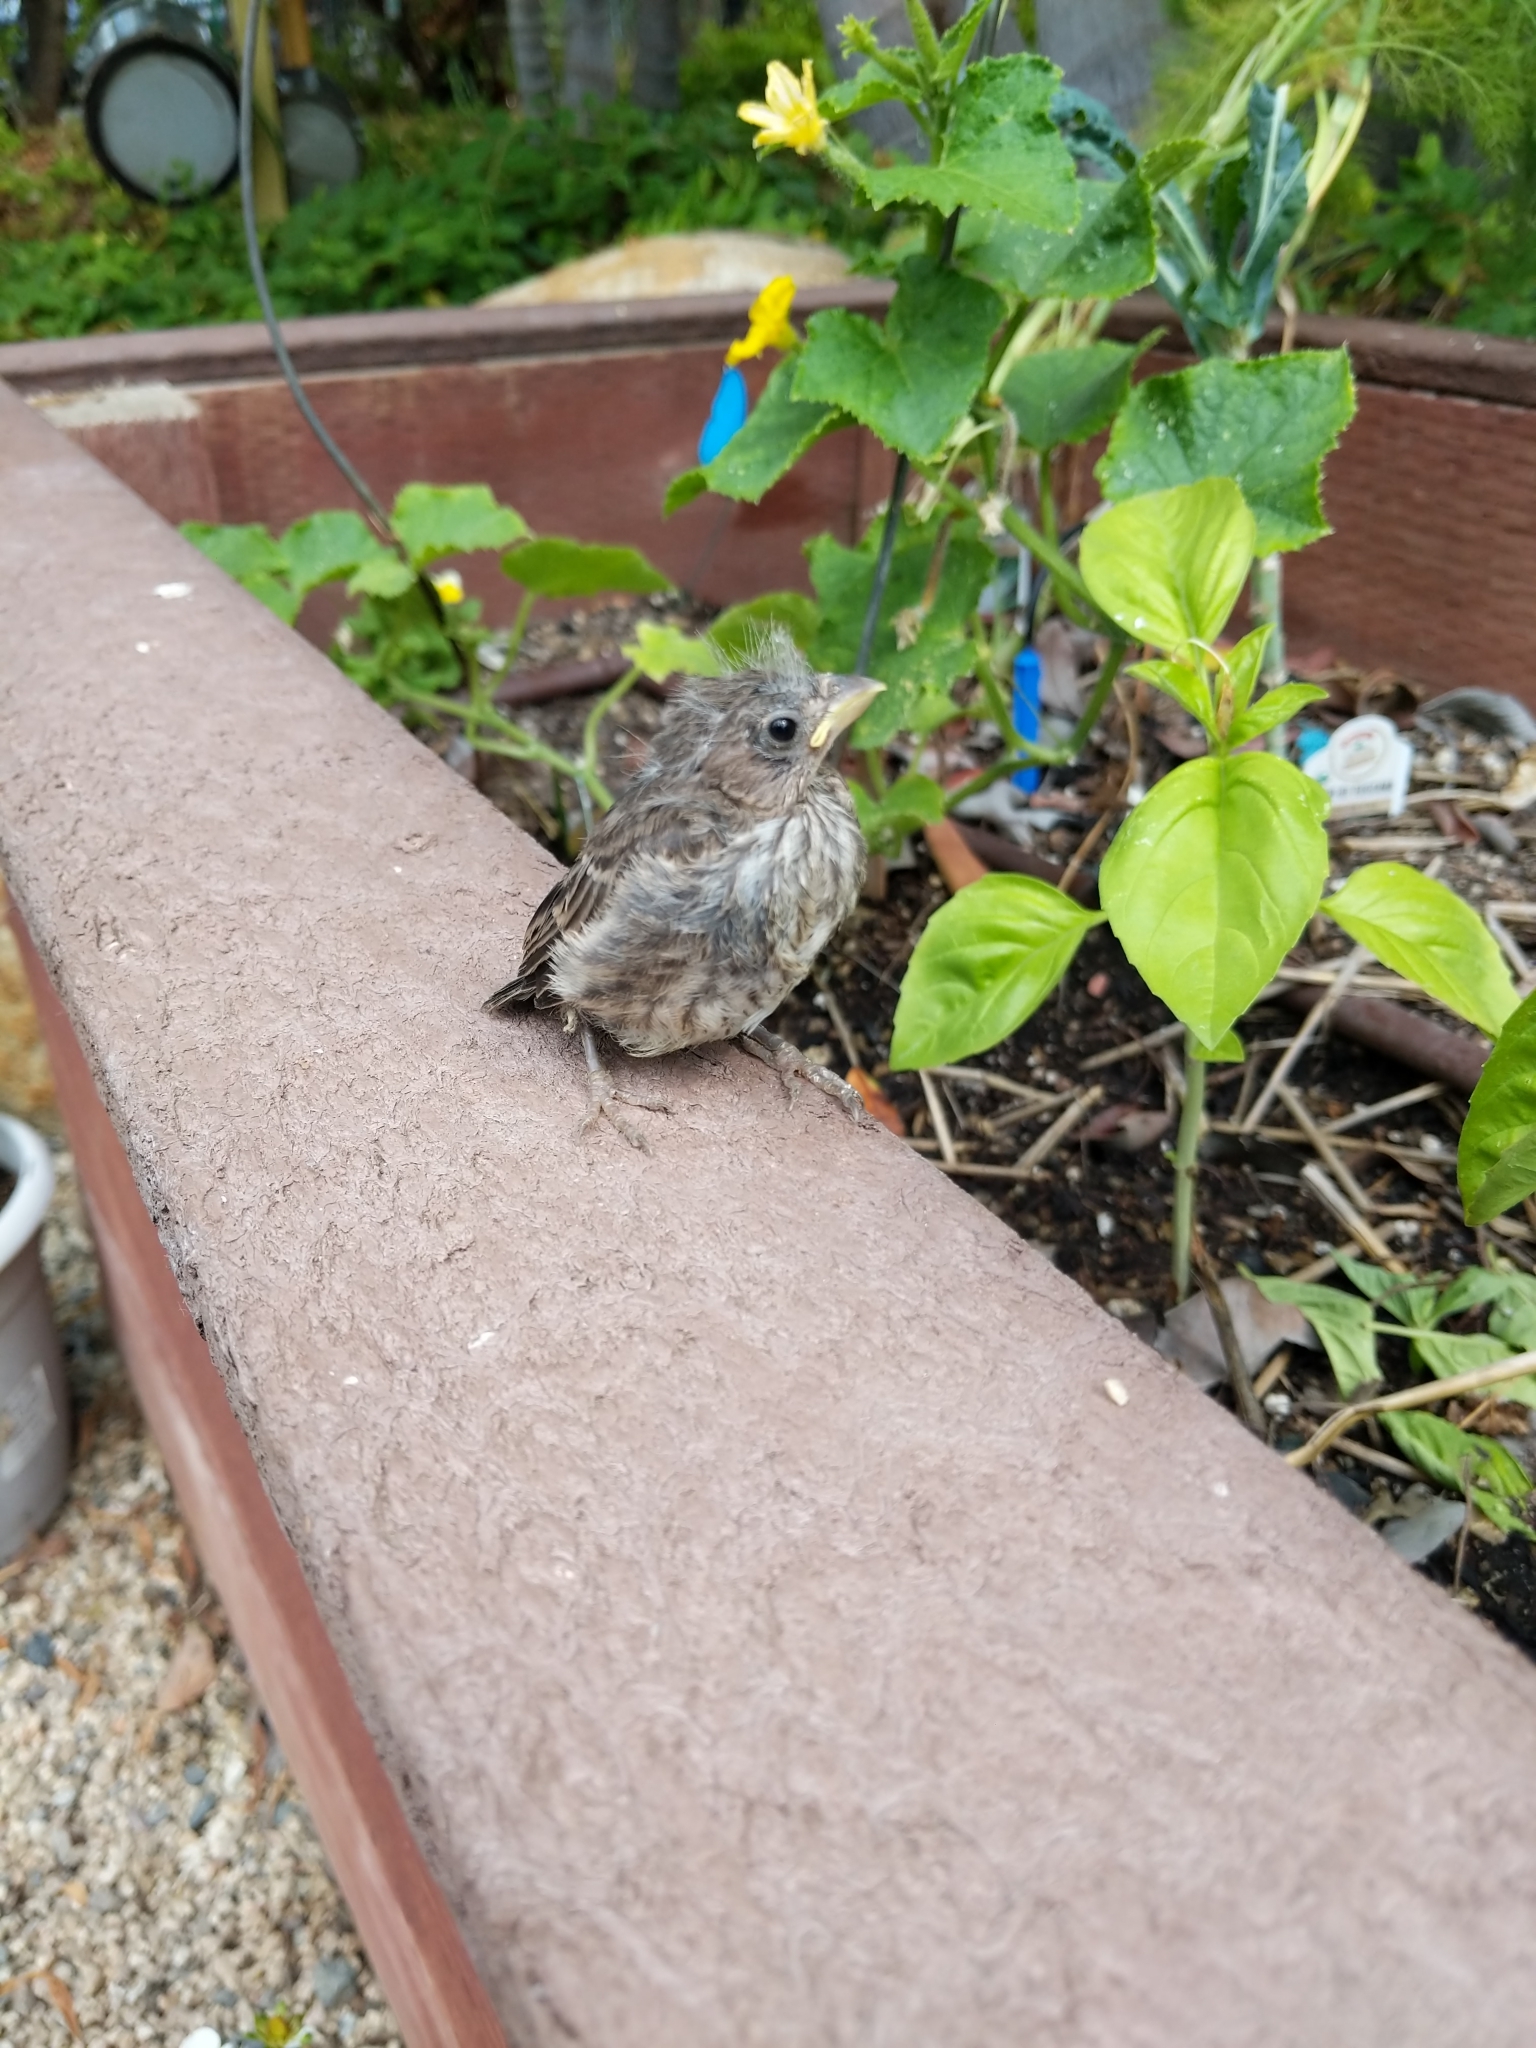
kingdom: Animalia
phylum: Chordata
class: Aves
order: Passeriformes
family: Fringillidae
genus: Haemorhous
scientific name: Haemorhous mexicanus
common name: House finch
